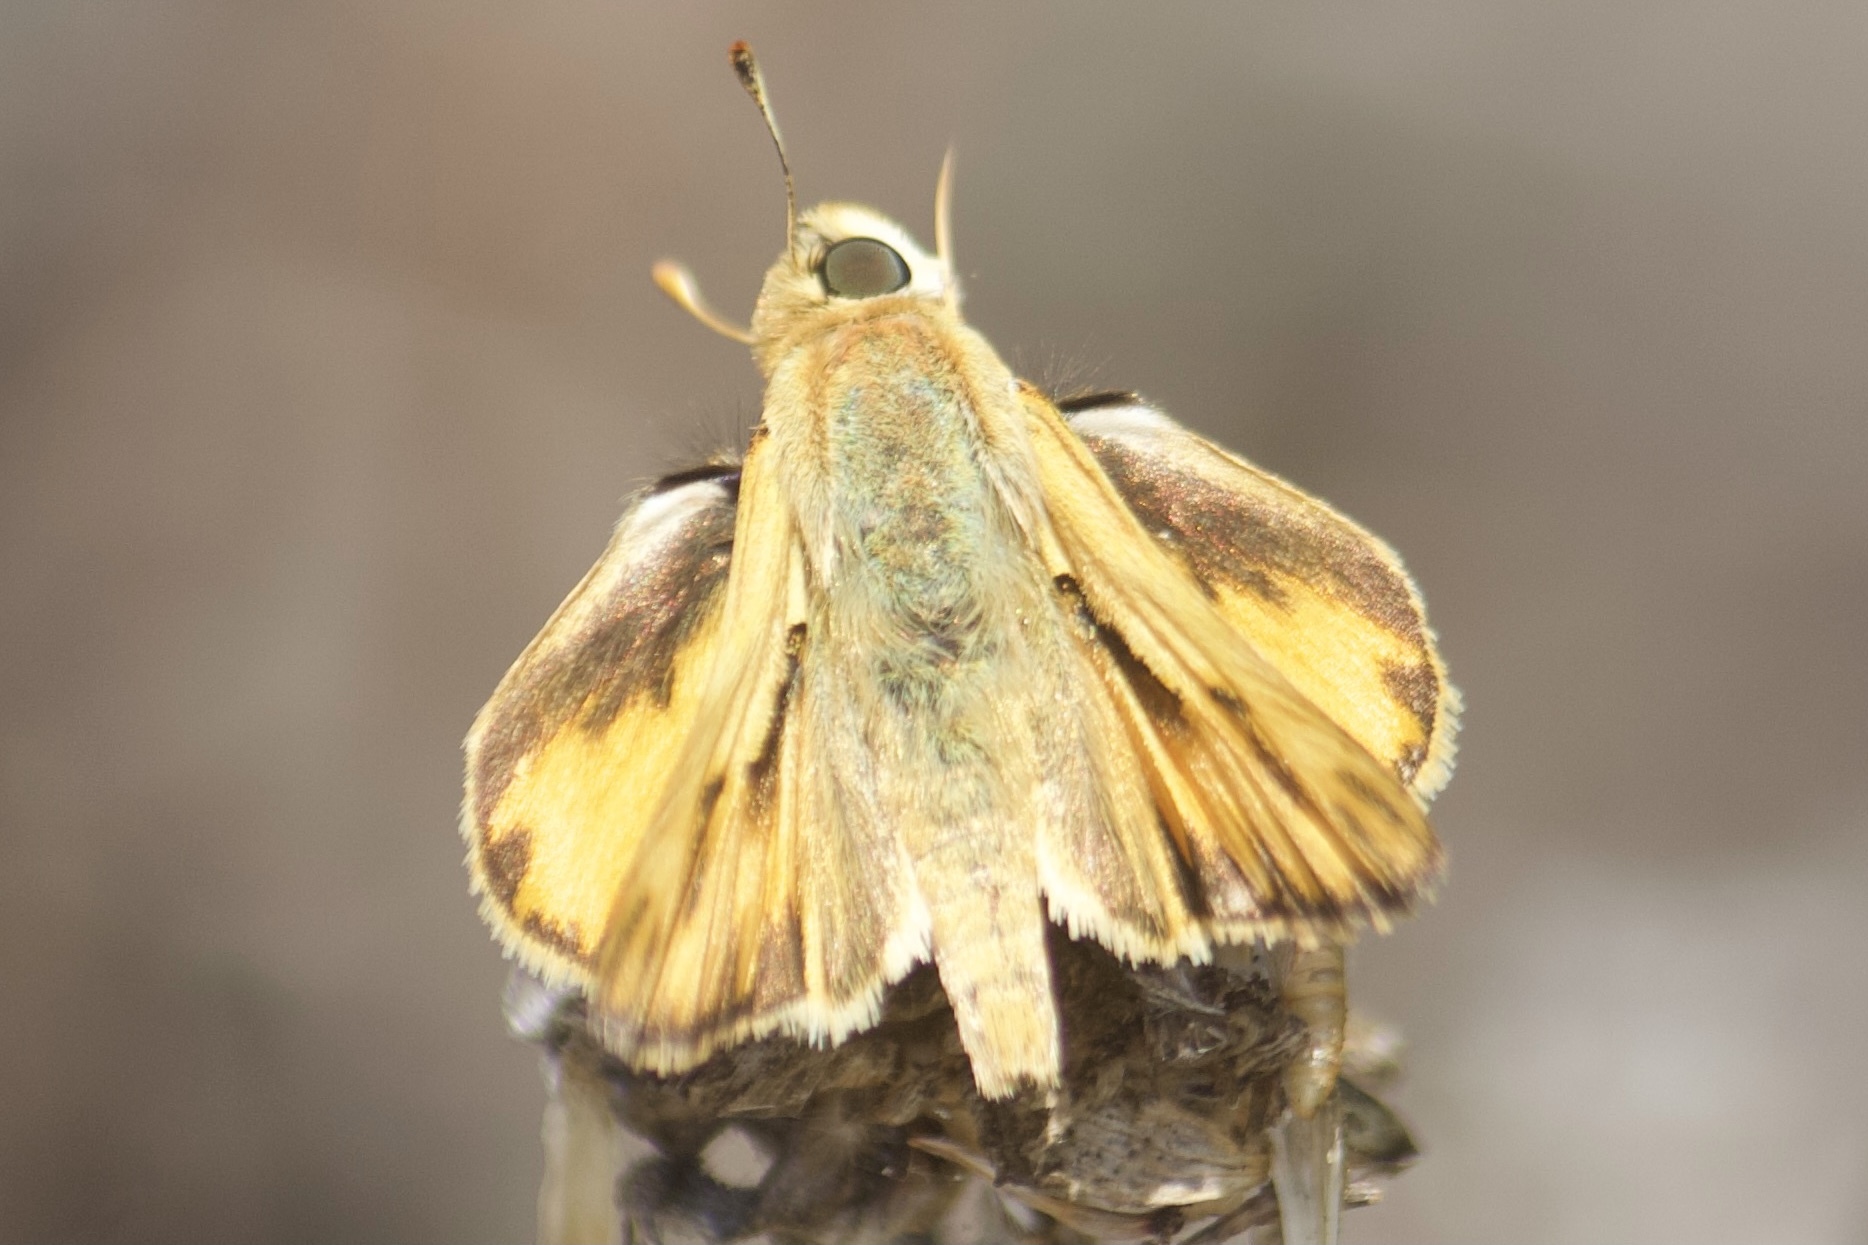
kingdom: Animalia
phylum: Arthropoda
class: Insecta
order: Lepidoptera
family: Hesperiidae
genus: Hylephila
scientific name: Hylephila phyleus
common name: Fiery skipper
